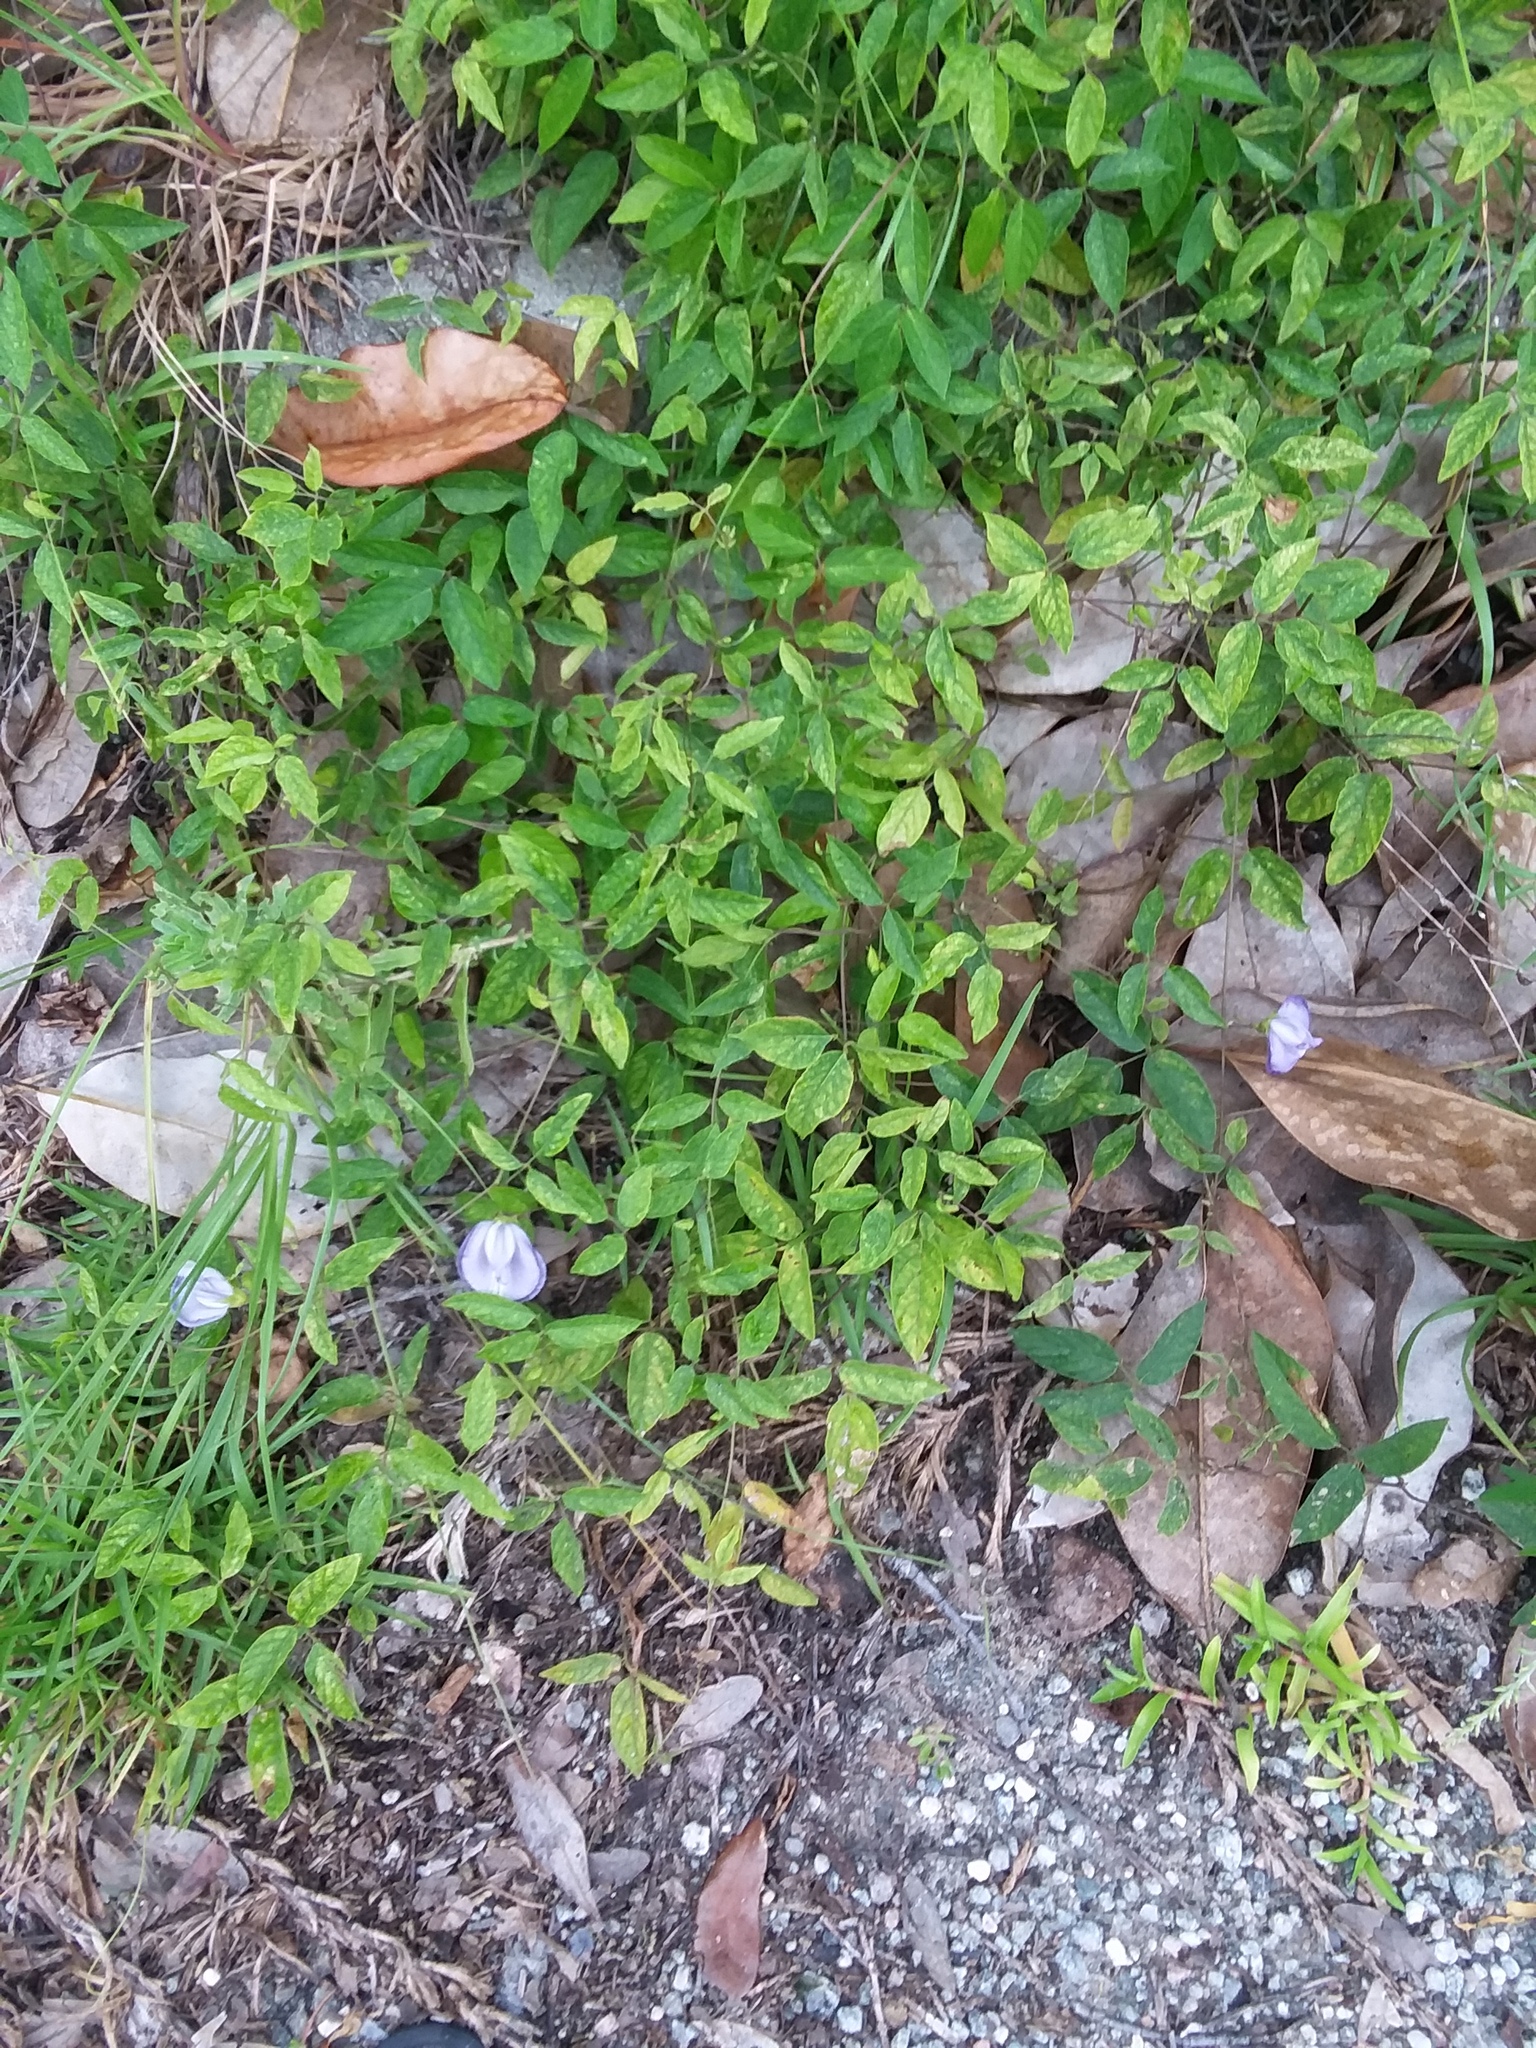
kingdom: Plantae
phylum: Tracheophyta
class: Magnoliopsida
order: Fabales
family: Fabaceae
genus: Centrosema
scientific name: Centrosema virginianum
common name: Butterfly-pea
